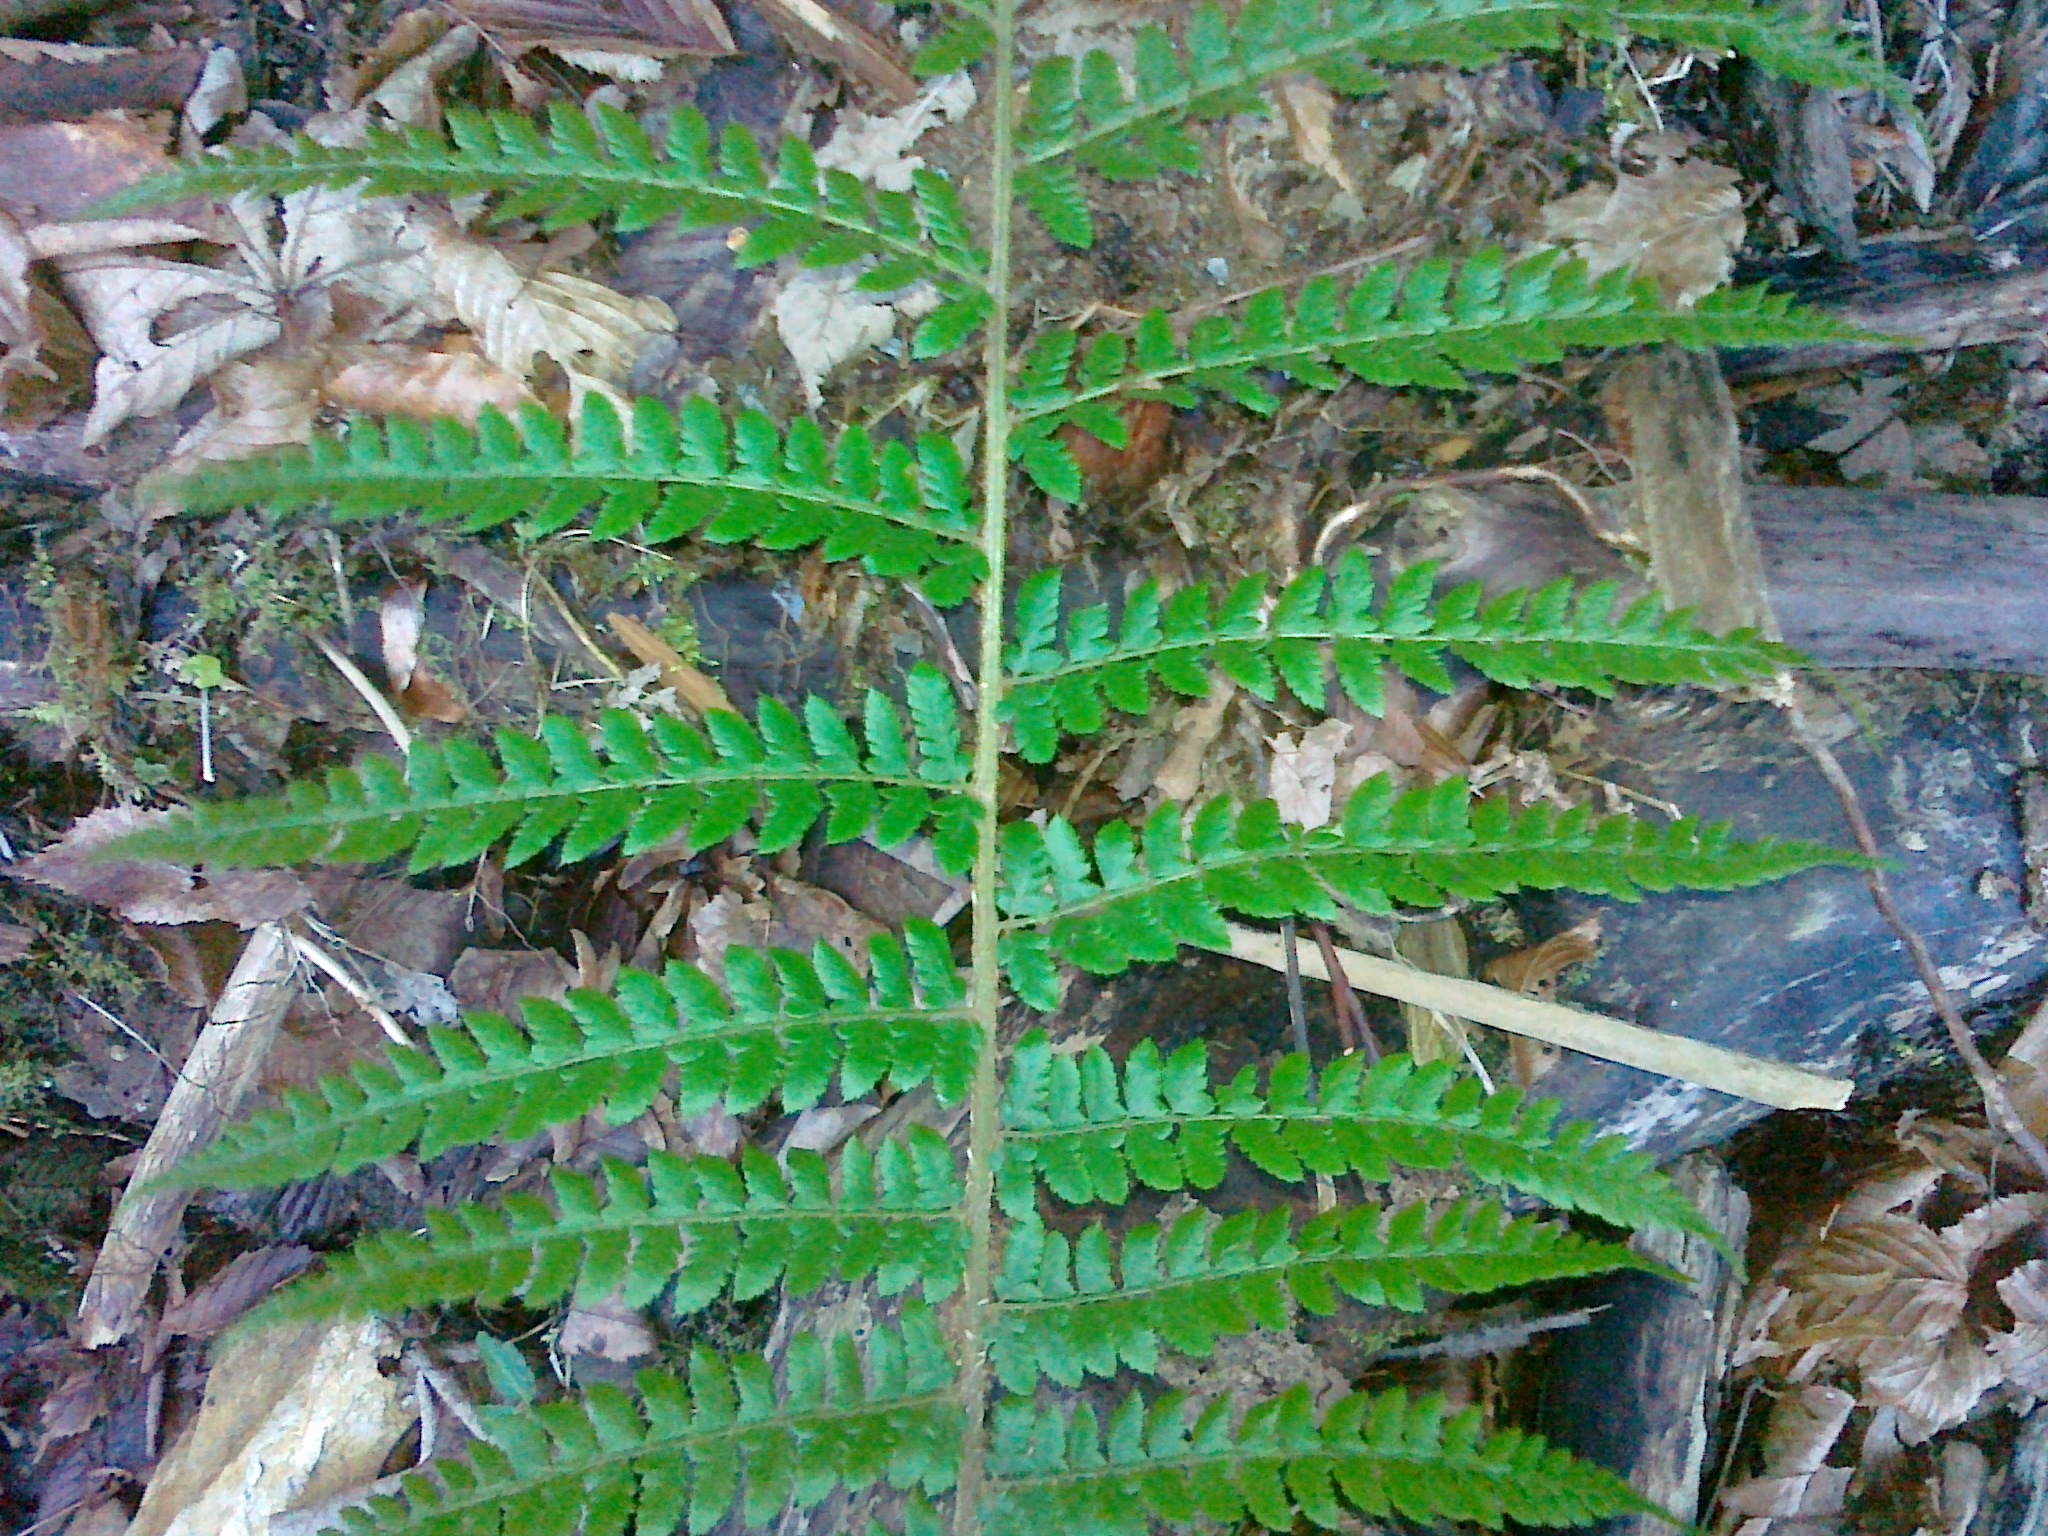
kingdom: Plantae
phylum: Tracheophyta
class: Polypodiopsida
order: Polypodiales
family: Dryopteridaceae
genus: Polystichum
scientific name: Polystichum wirtgenii
